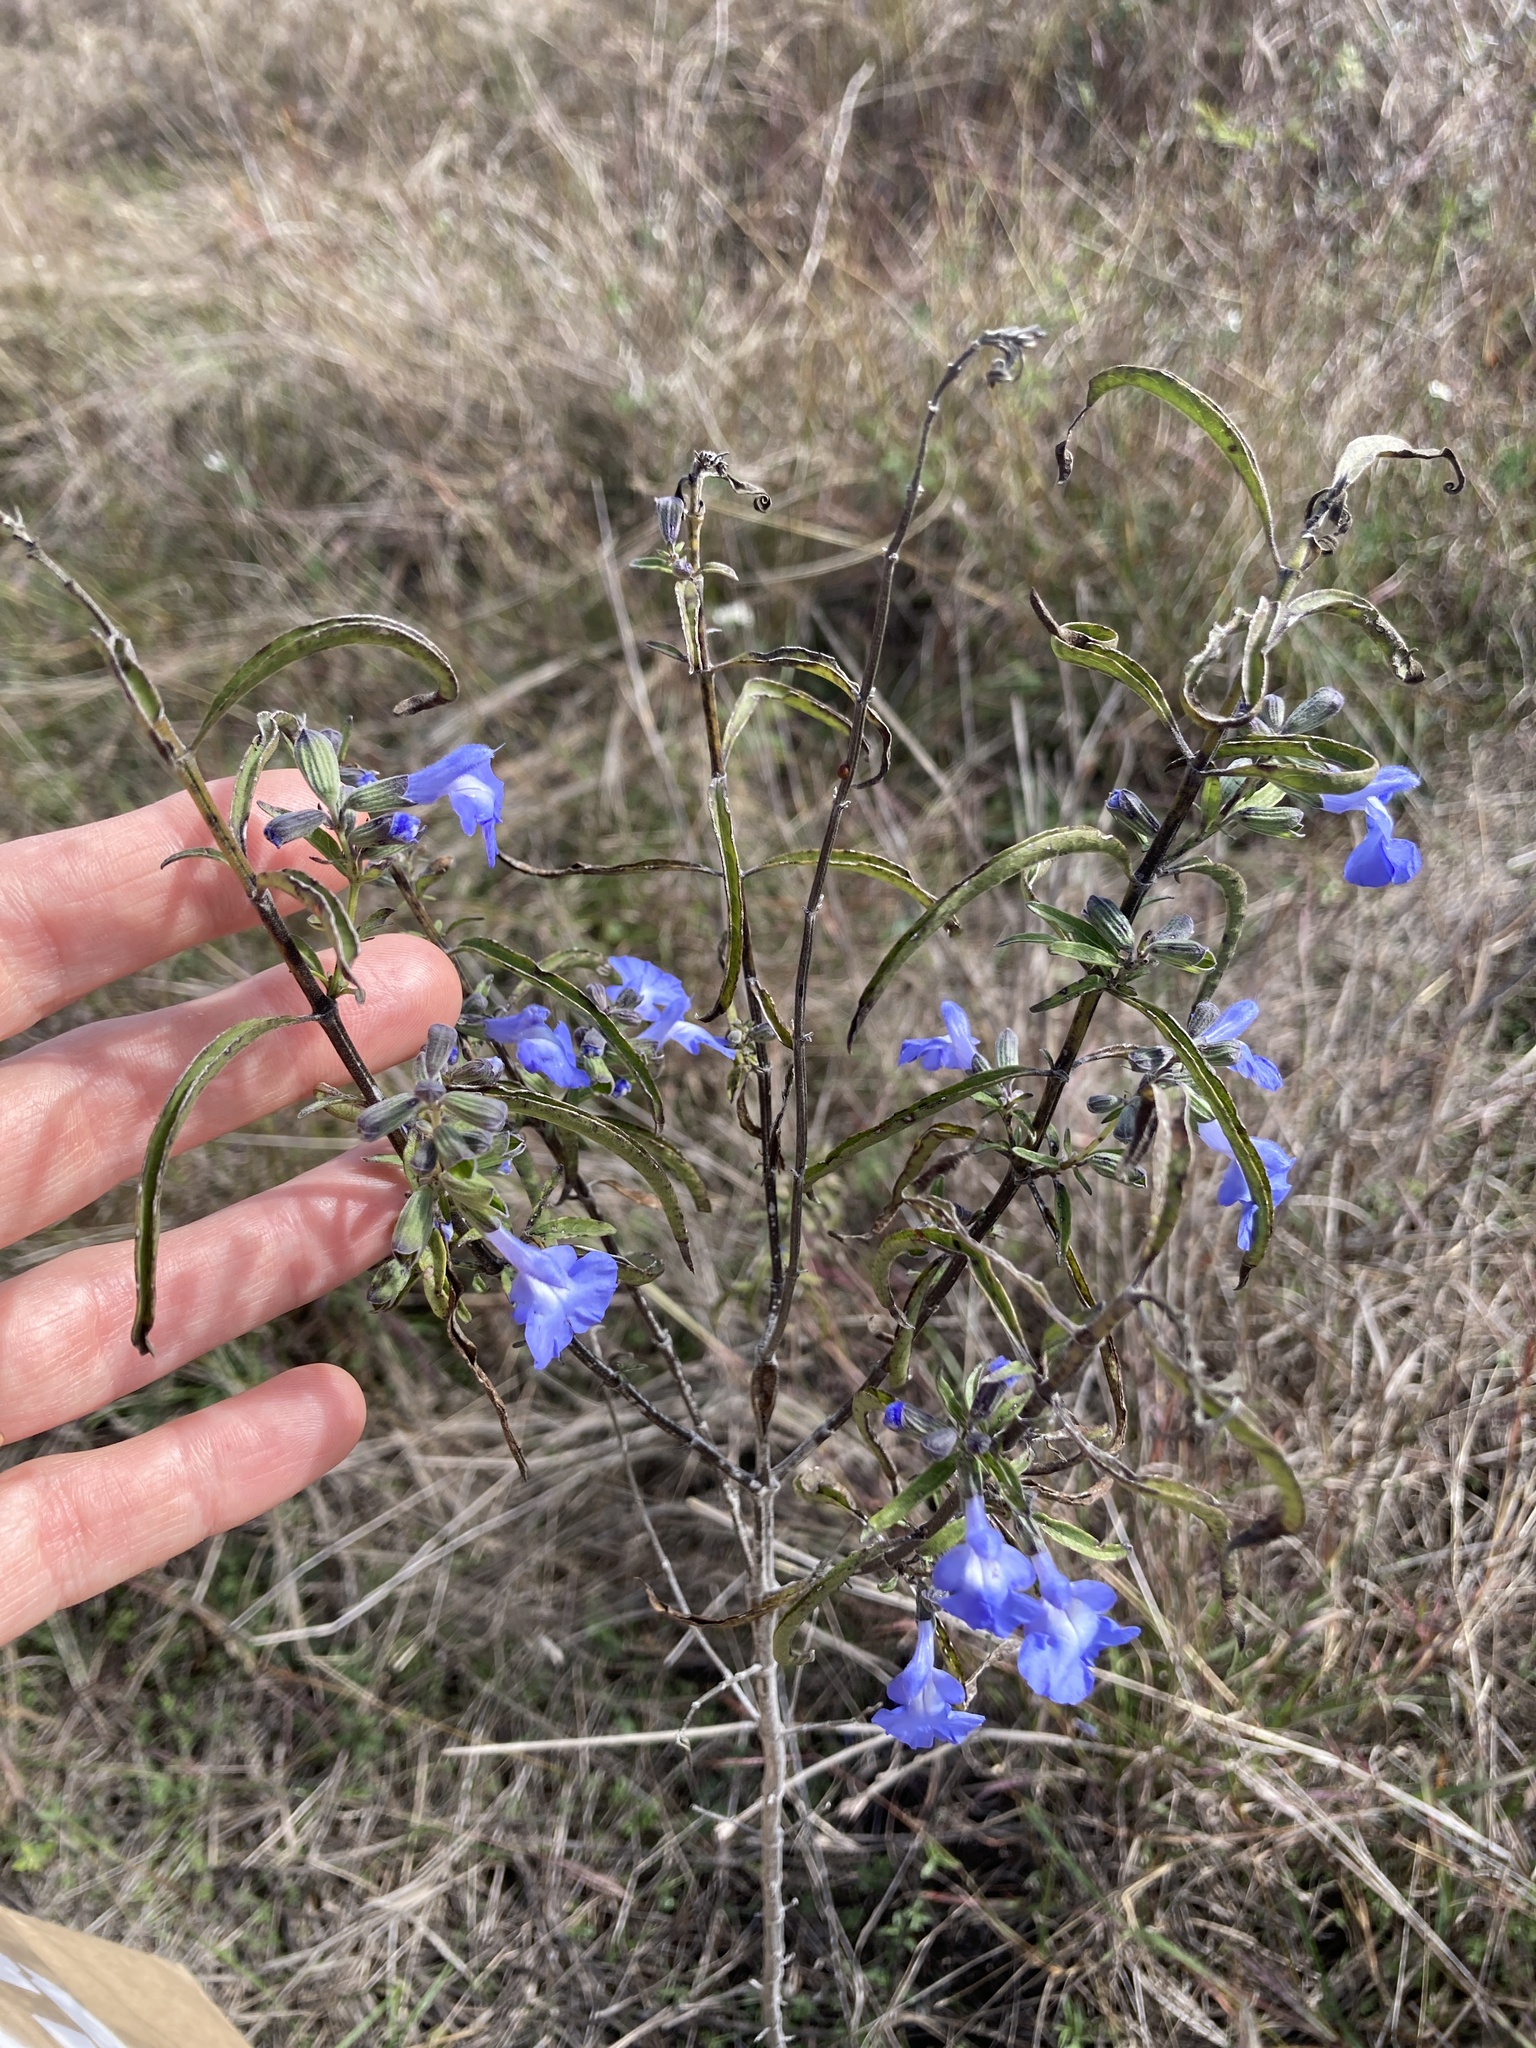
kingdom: Plantae
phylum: Tracheophyta
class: Magnoliopsida
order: Lamiales
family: Lamiaceae
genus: Salvia
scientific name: Salvia azurea
